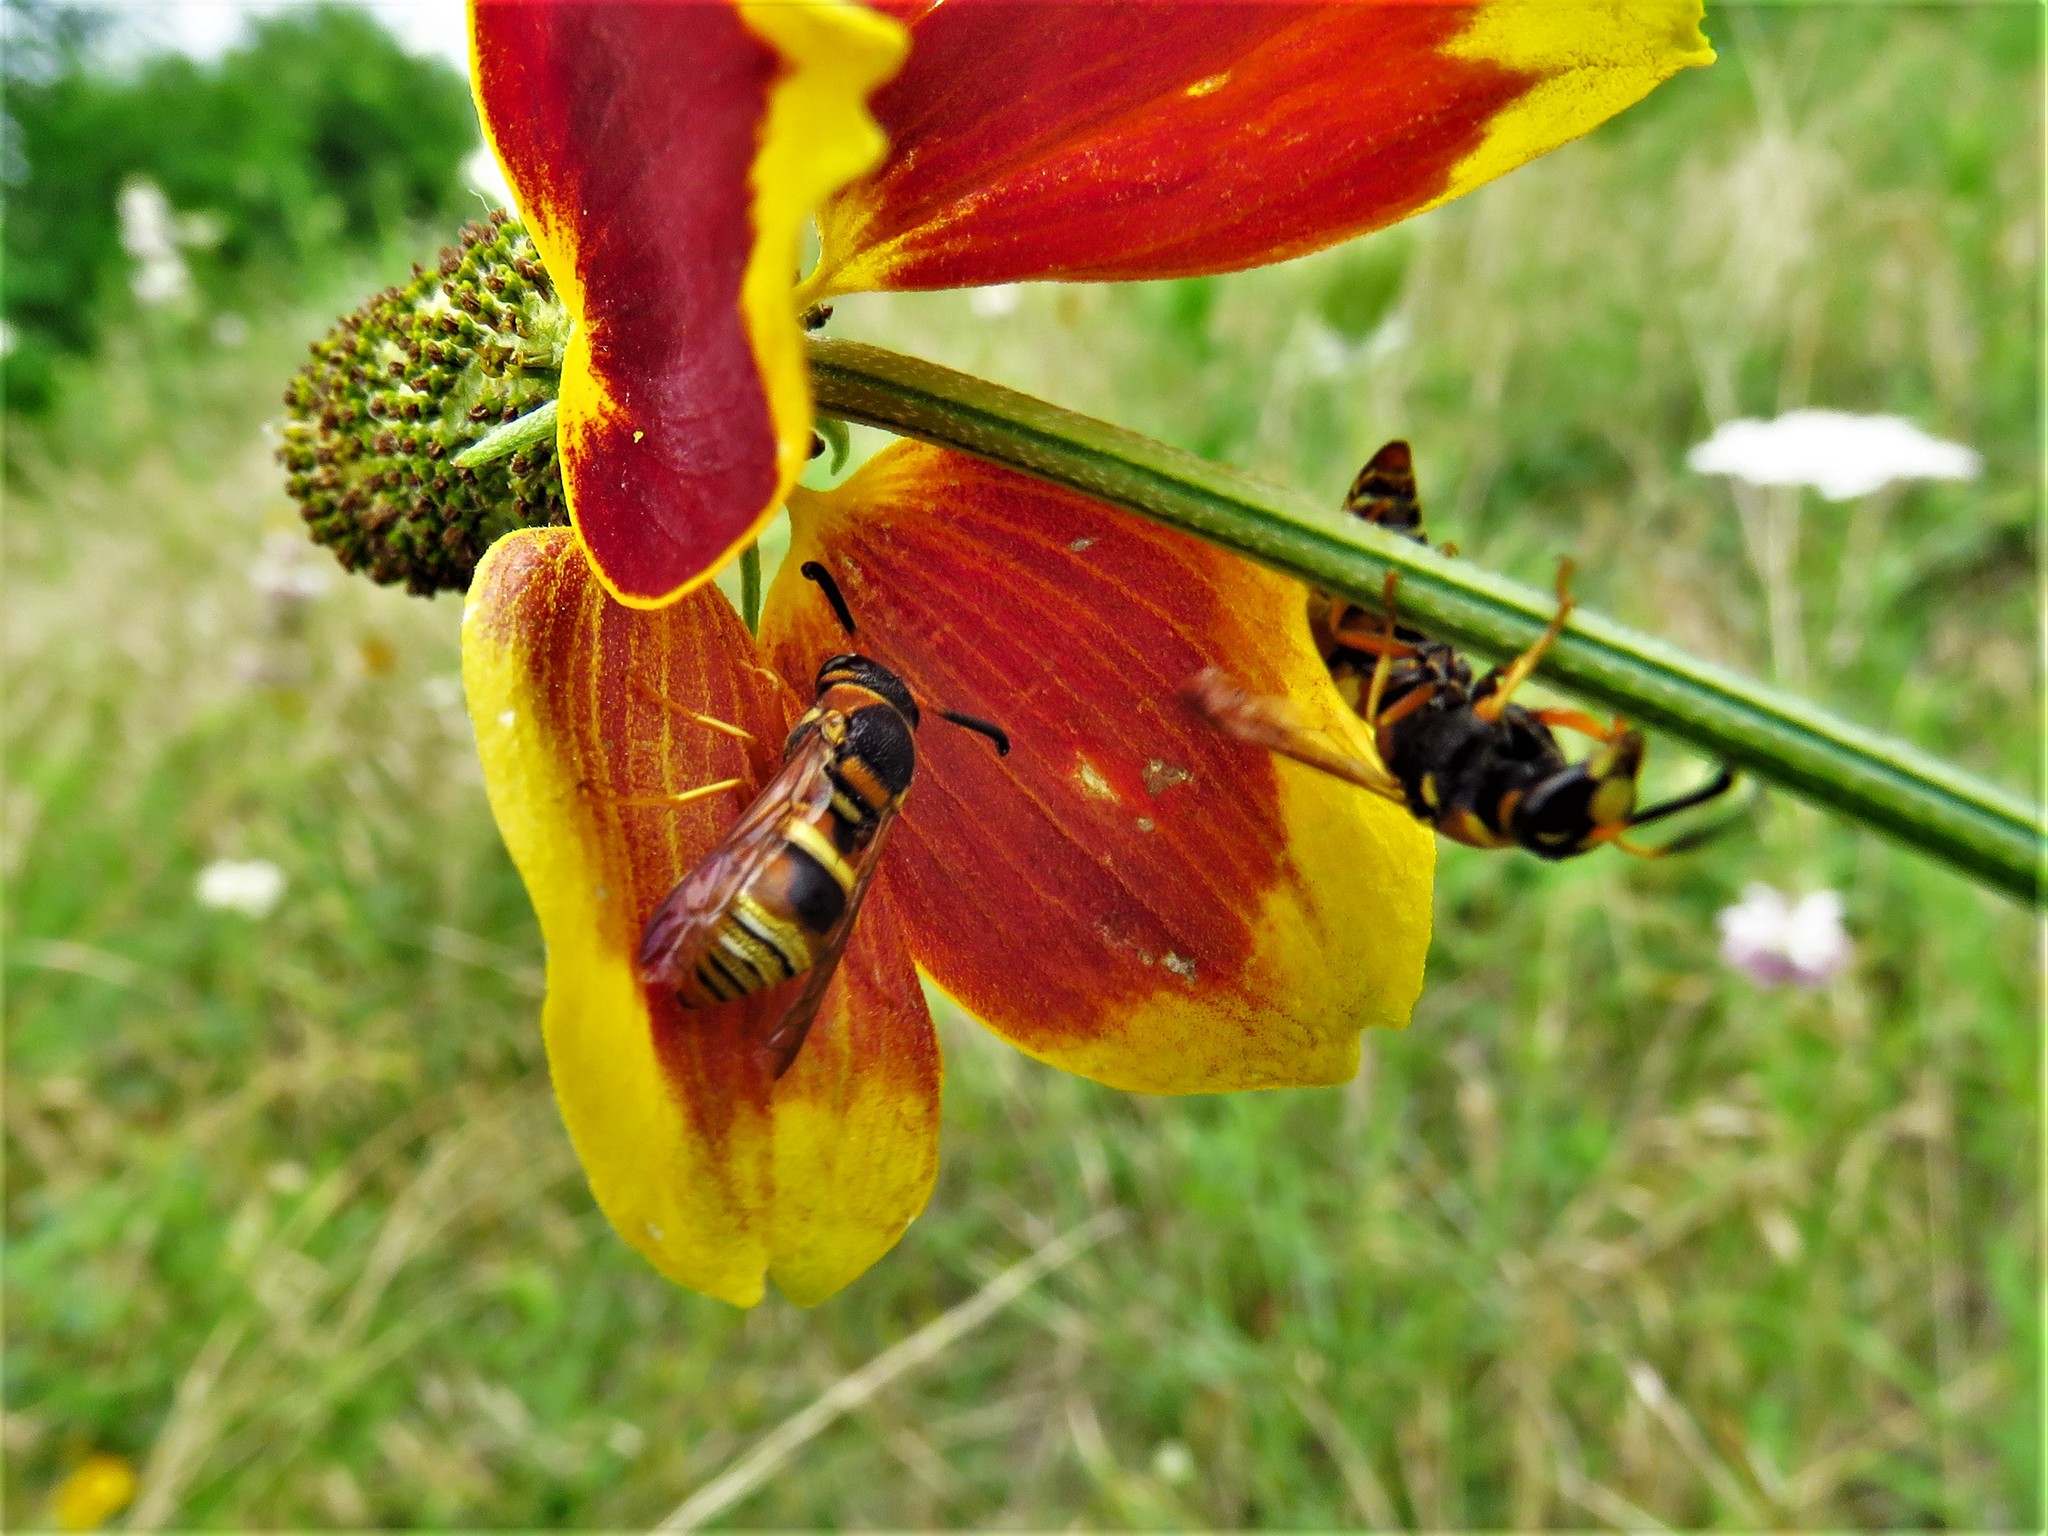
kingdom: Animalia
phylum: Arthropoda
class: Insecta
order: Hymenoptera
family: Eumenidae
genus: Euodynerus
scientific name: Euodynerus hidalgo
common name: Wasp
